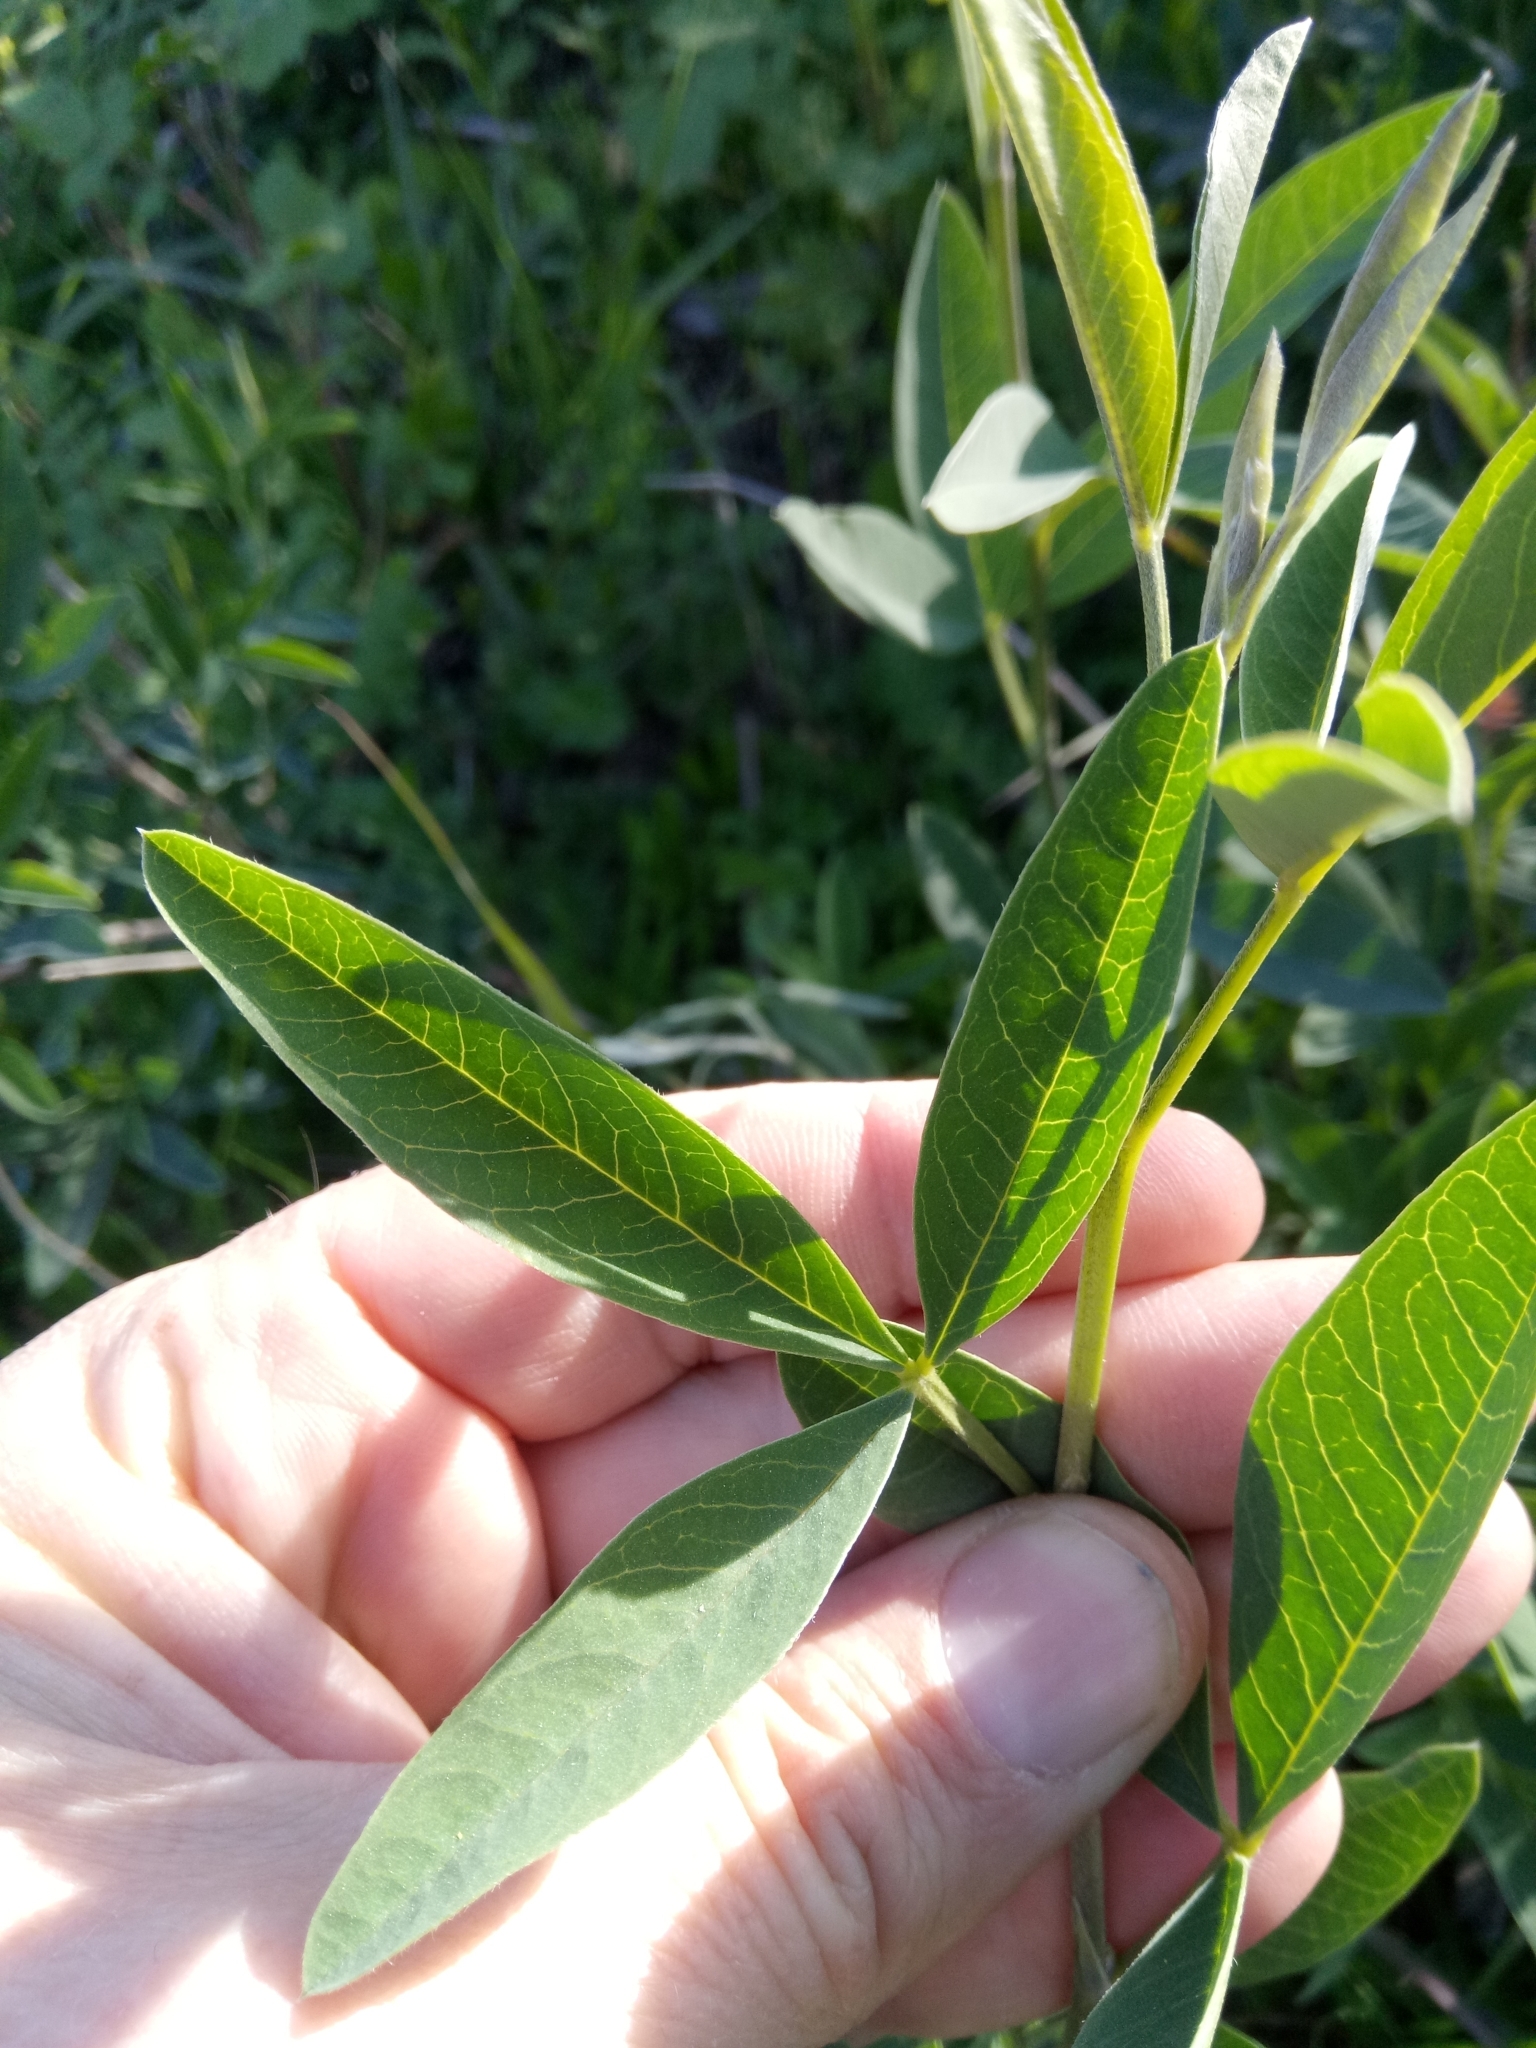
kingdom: Plantae
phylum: Tracheophyta
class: Magnoliopsida
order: Fabales
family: Fabaceae
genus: Anagyris
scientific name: Anagyris foetida
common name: Stinking bean trefoil
